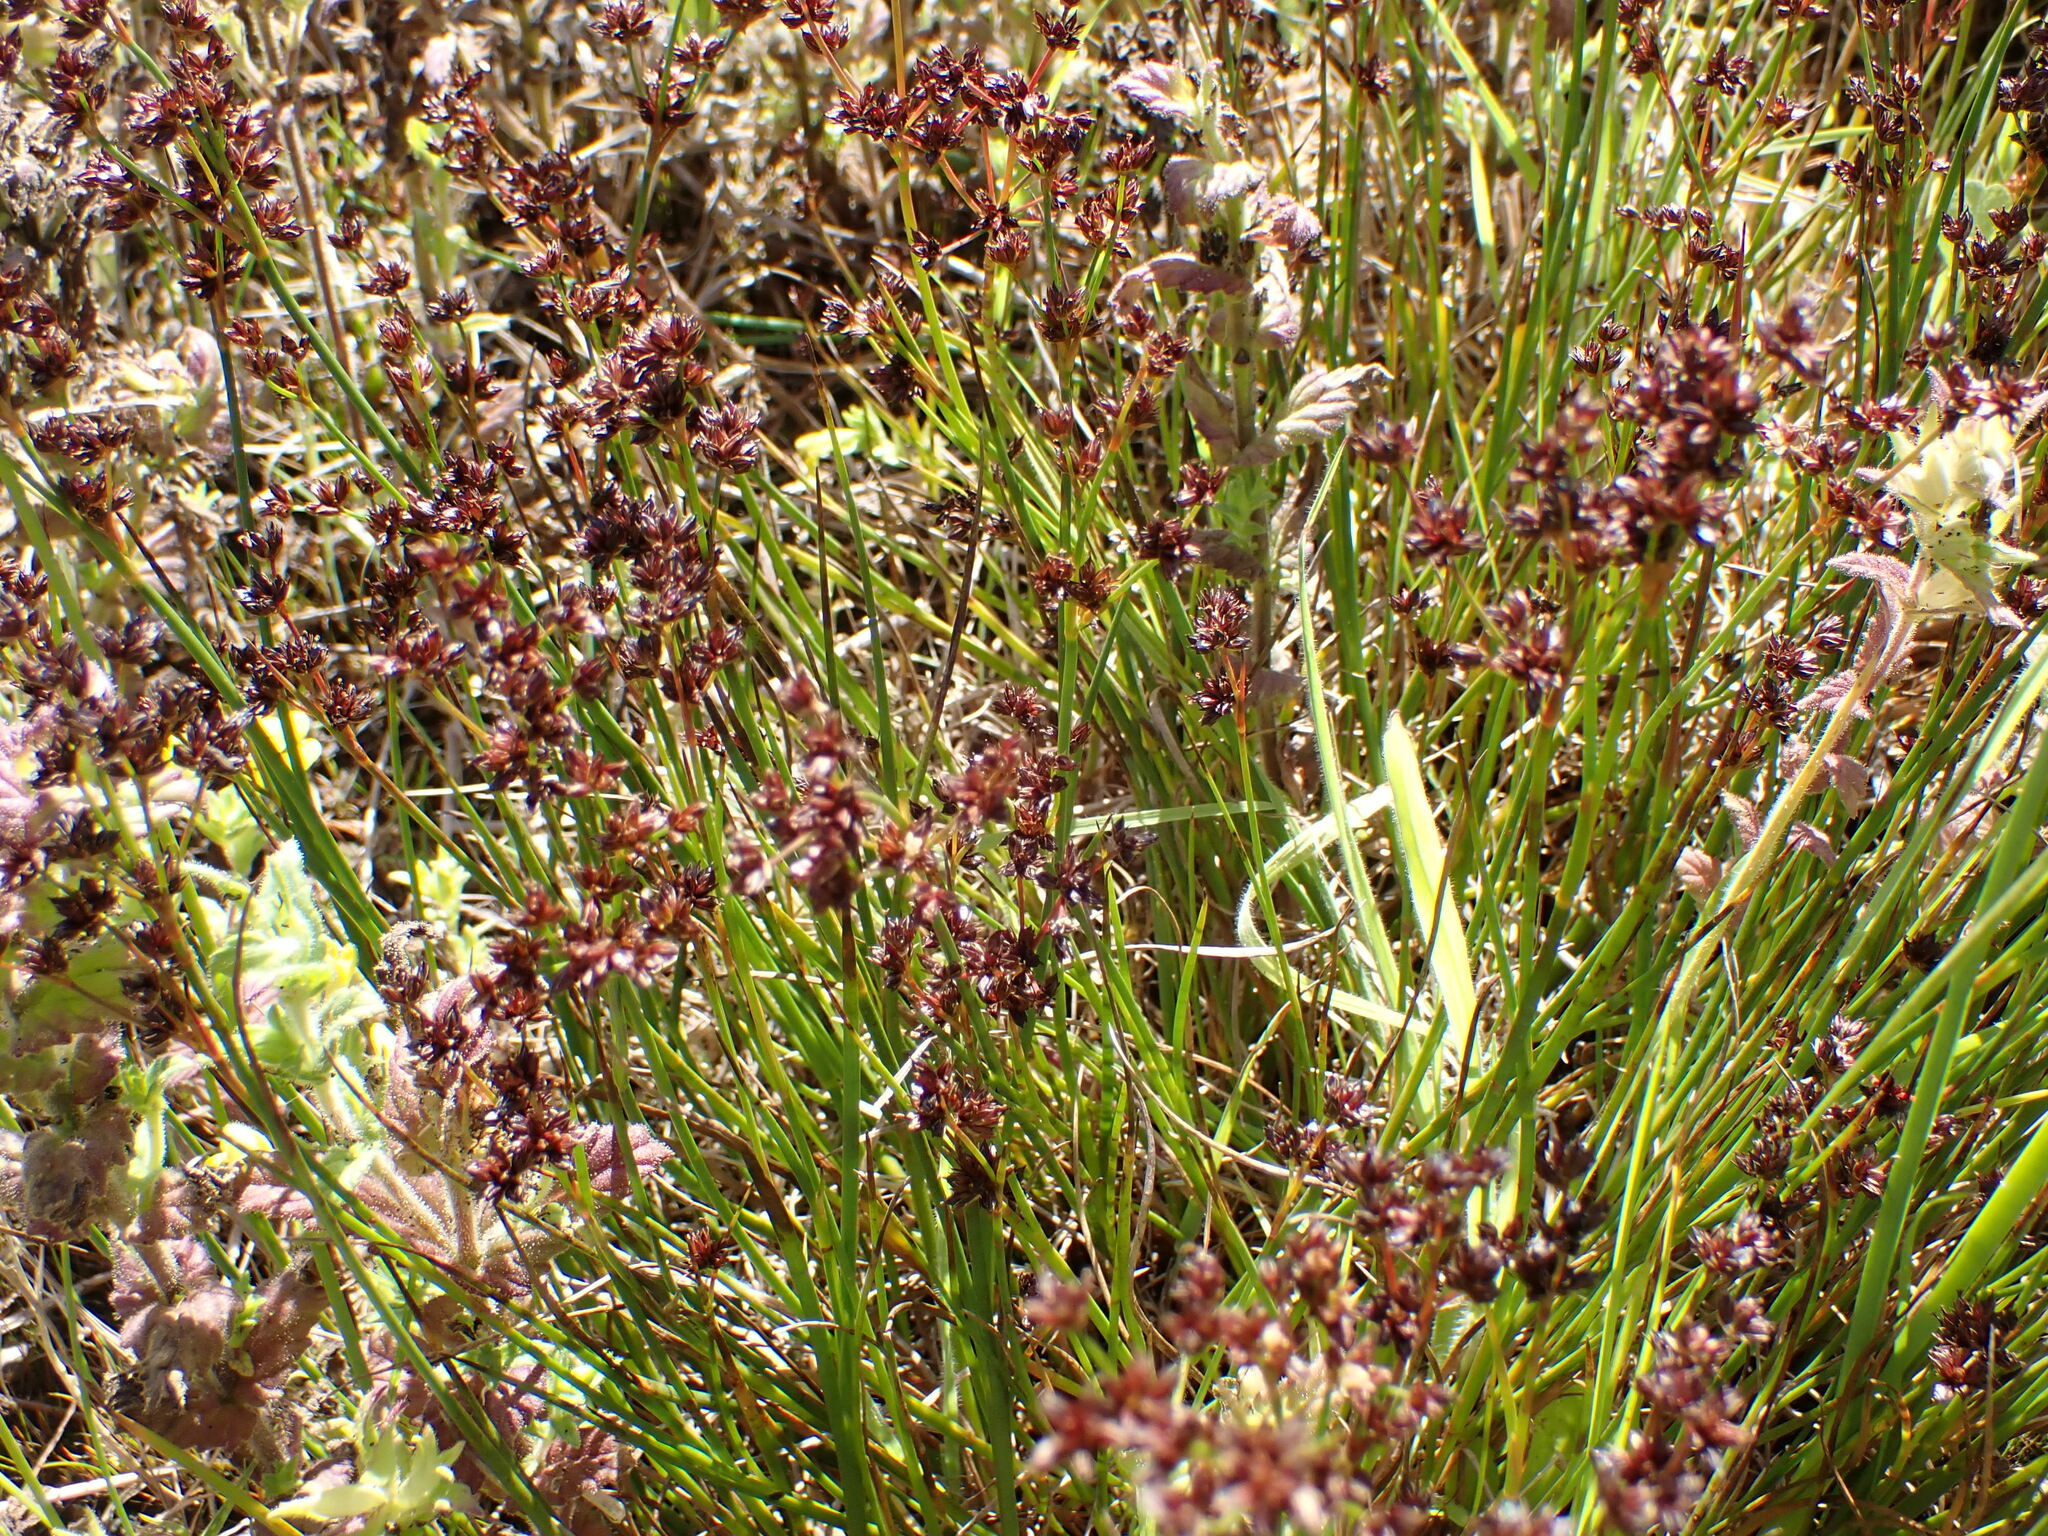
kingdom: Plantae
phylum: Tracheophyta
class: Liliopsida
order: Poales
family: Juncaceae
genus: Juncus
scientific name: Juncus articulatus
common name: Jointed rush
